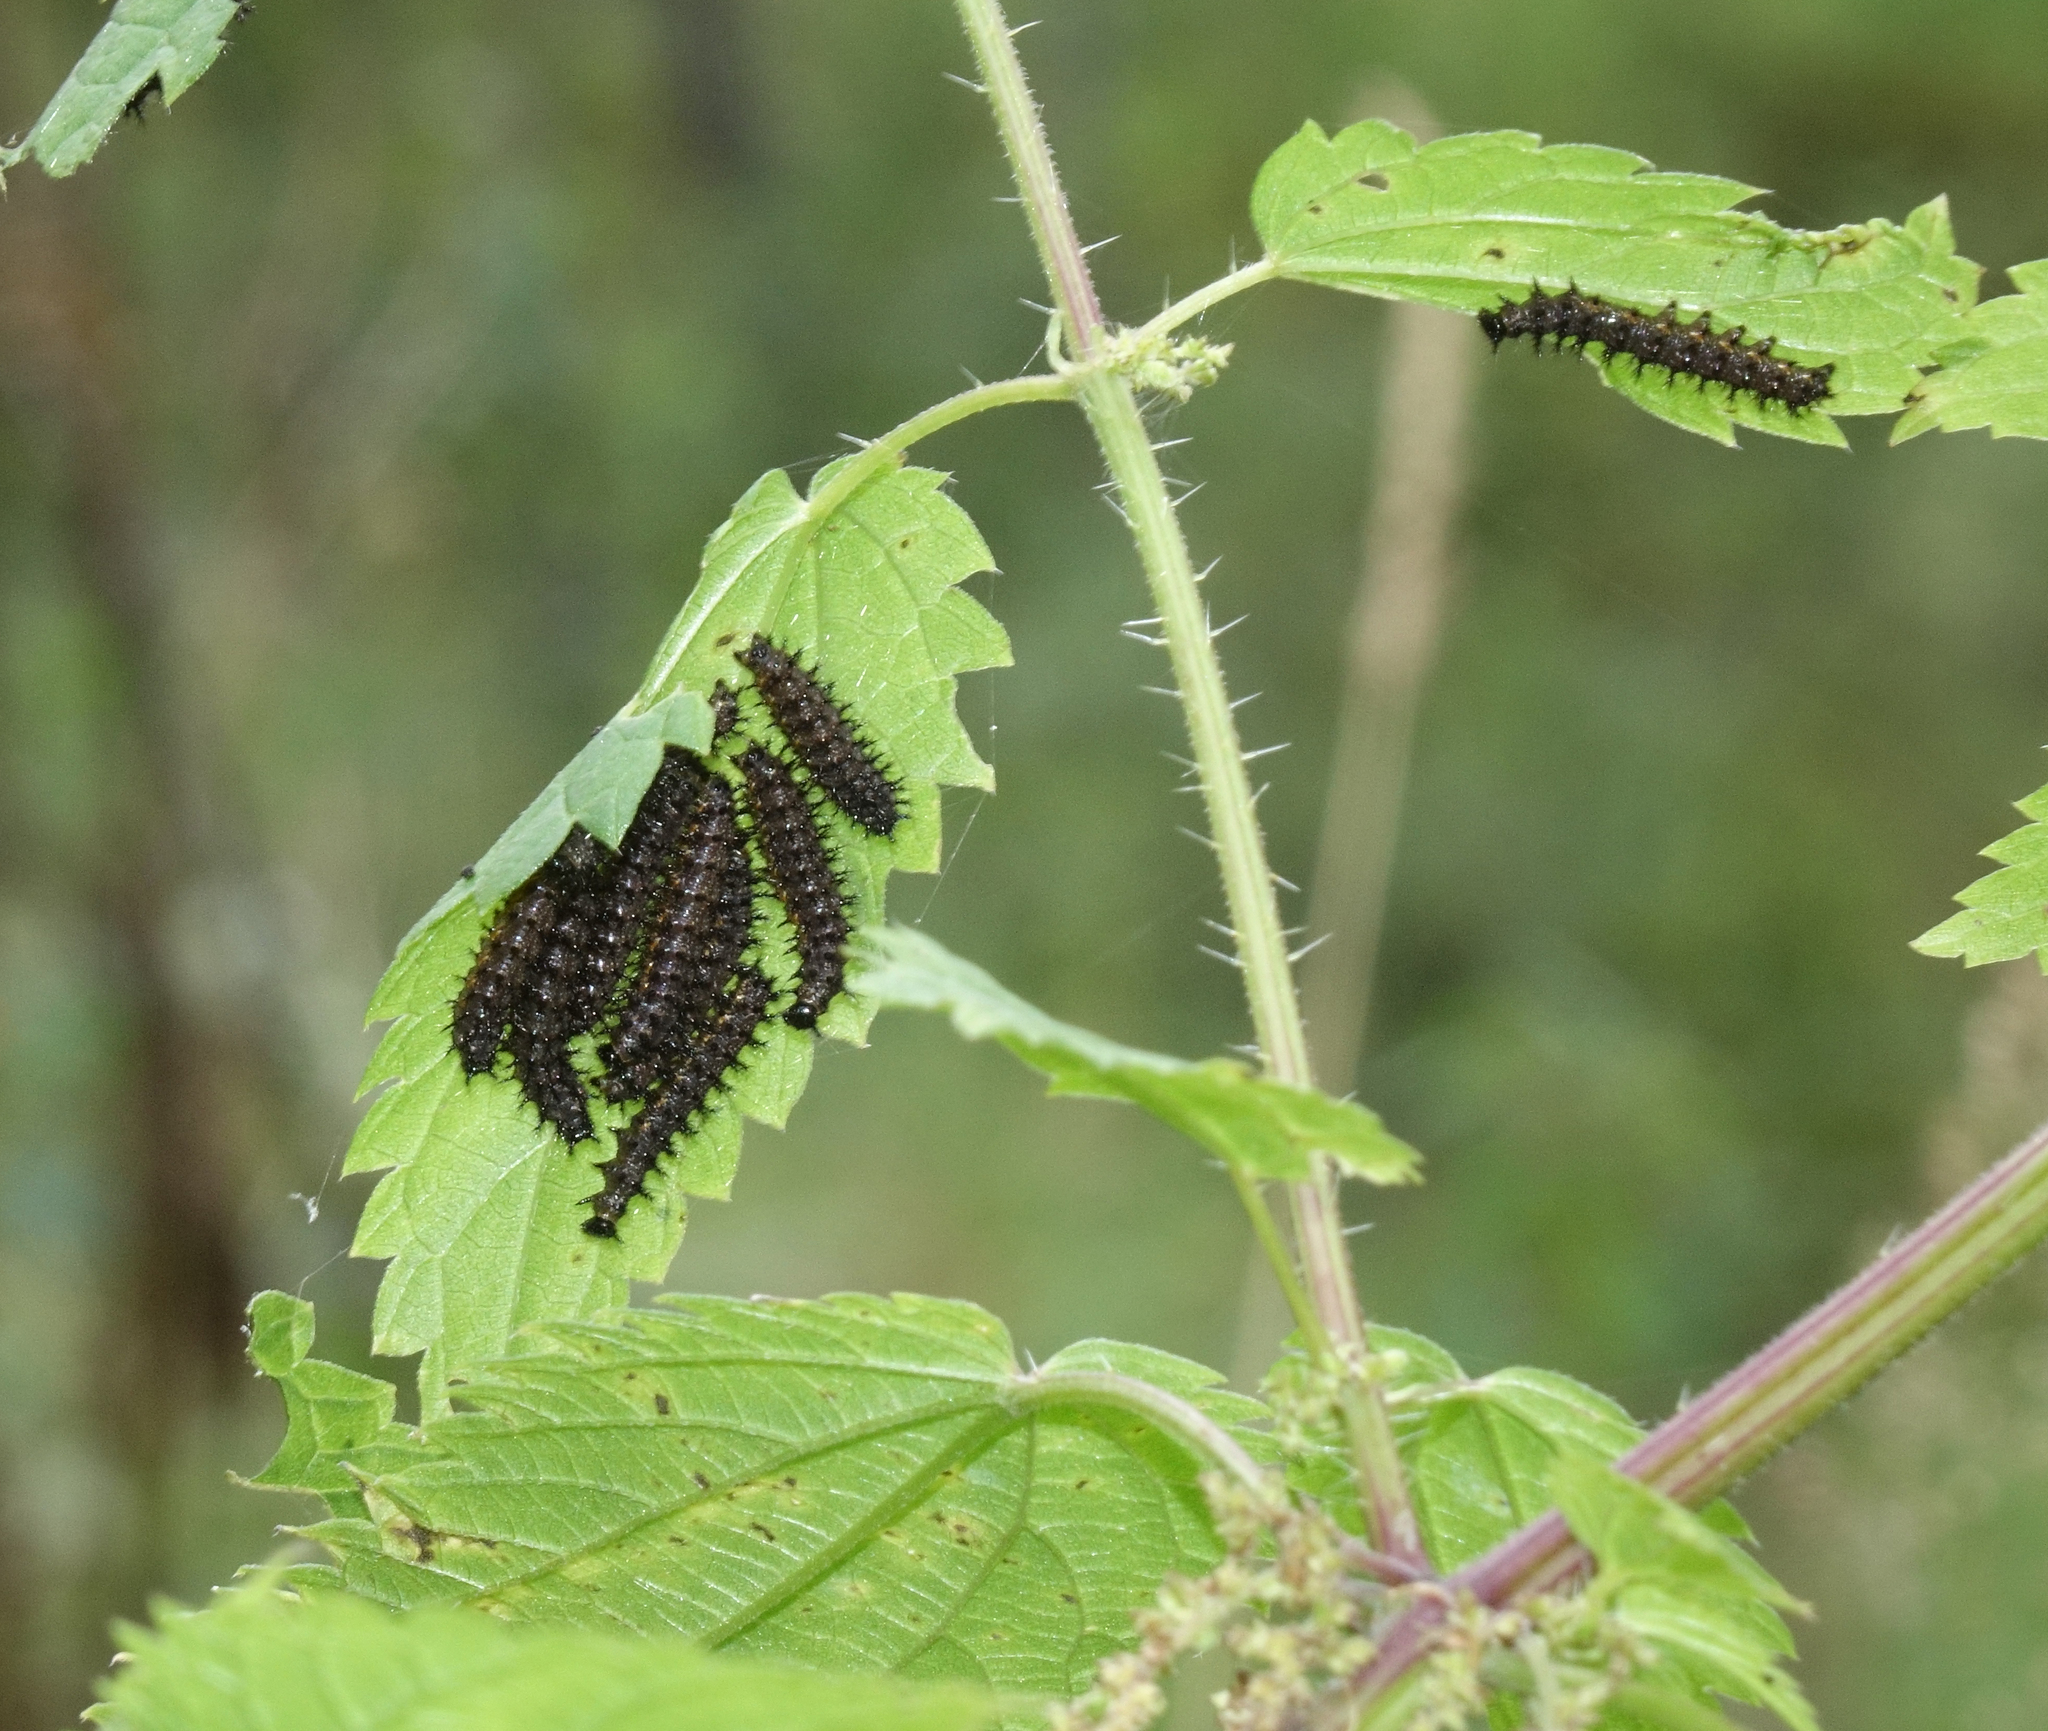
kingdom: Plantae
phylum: Tracheophyta
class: Magnoliopsida
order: Rosales
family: Urticaceae
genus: Urtica
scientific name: Urtica dioica
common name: Common nettle
